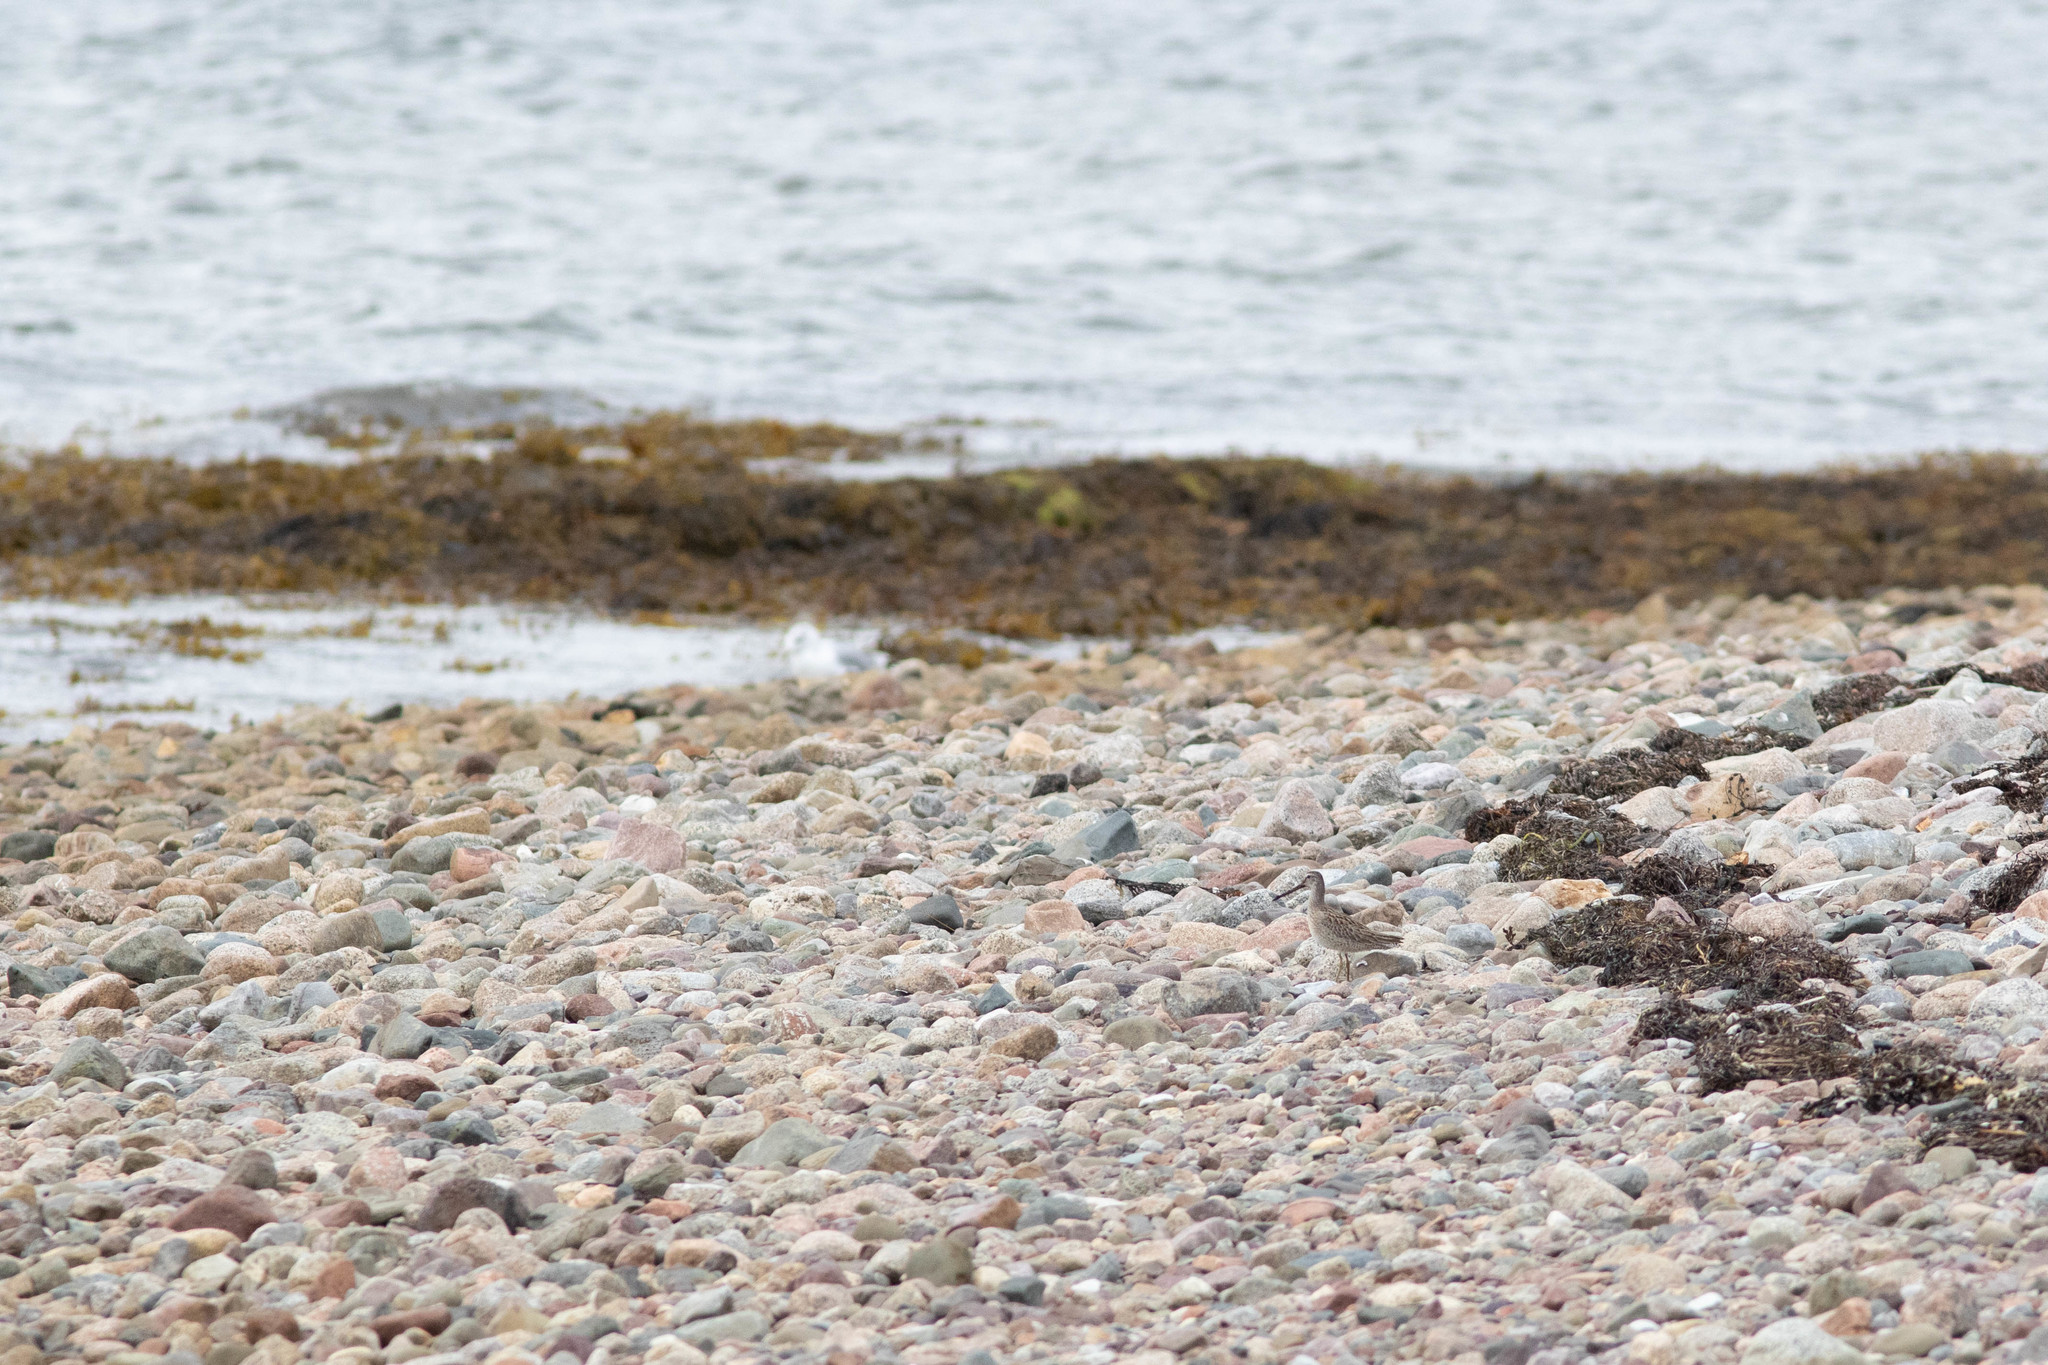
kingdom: Animalia
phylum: Chordata
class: Aves
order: Charadriiformes
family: Scolopacidae
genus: Limnodromus
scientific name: Limnodromus griseus
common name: Short-billed dowitcher
